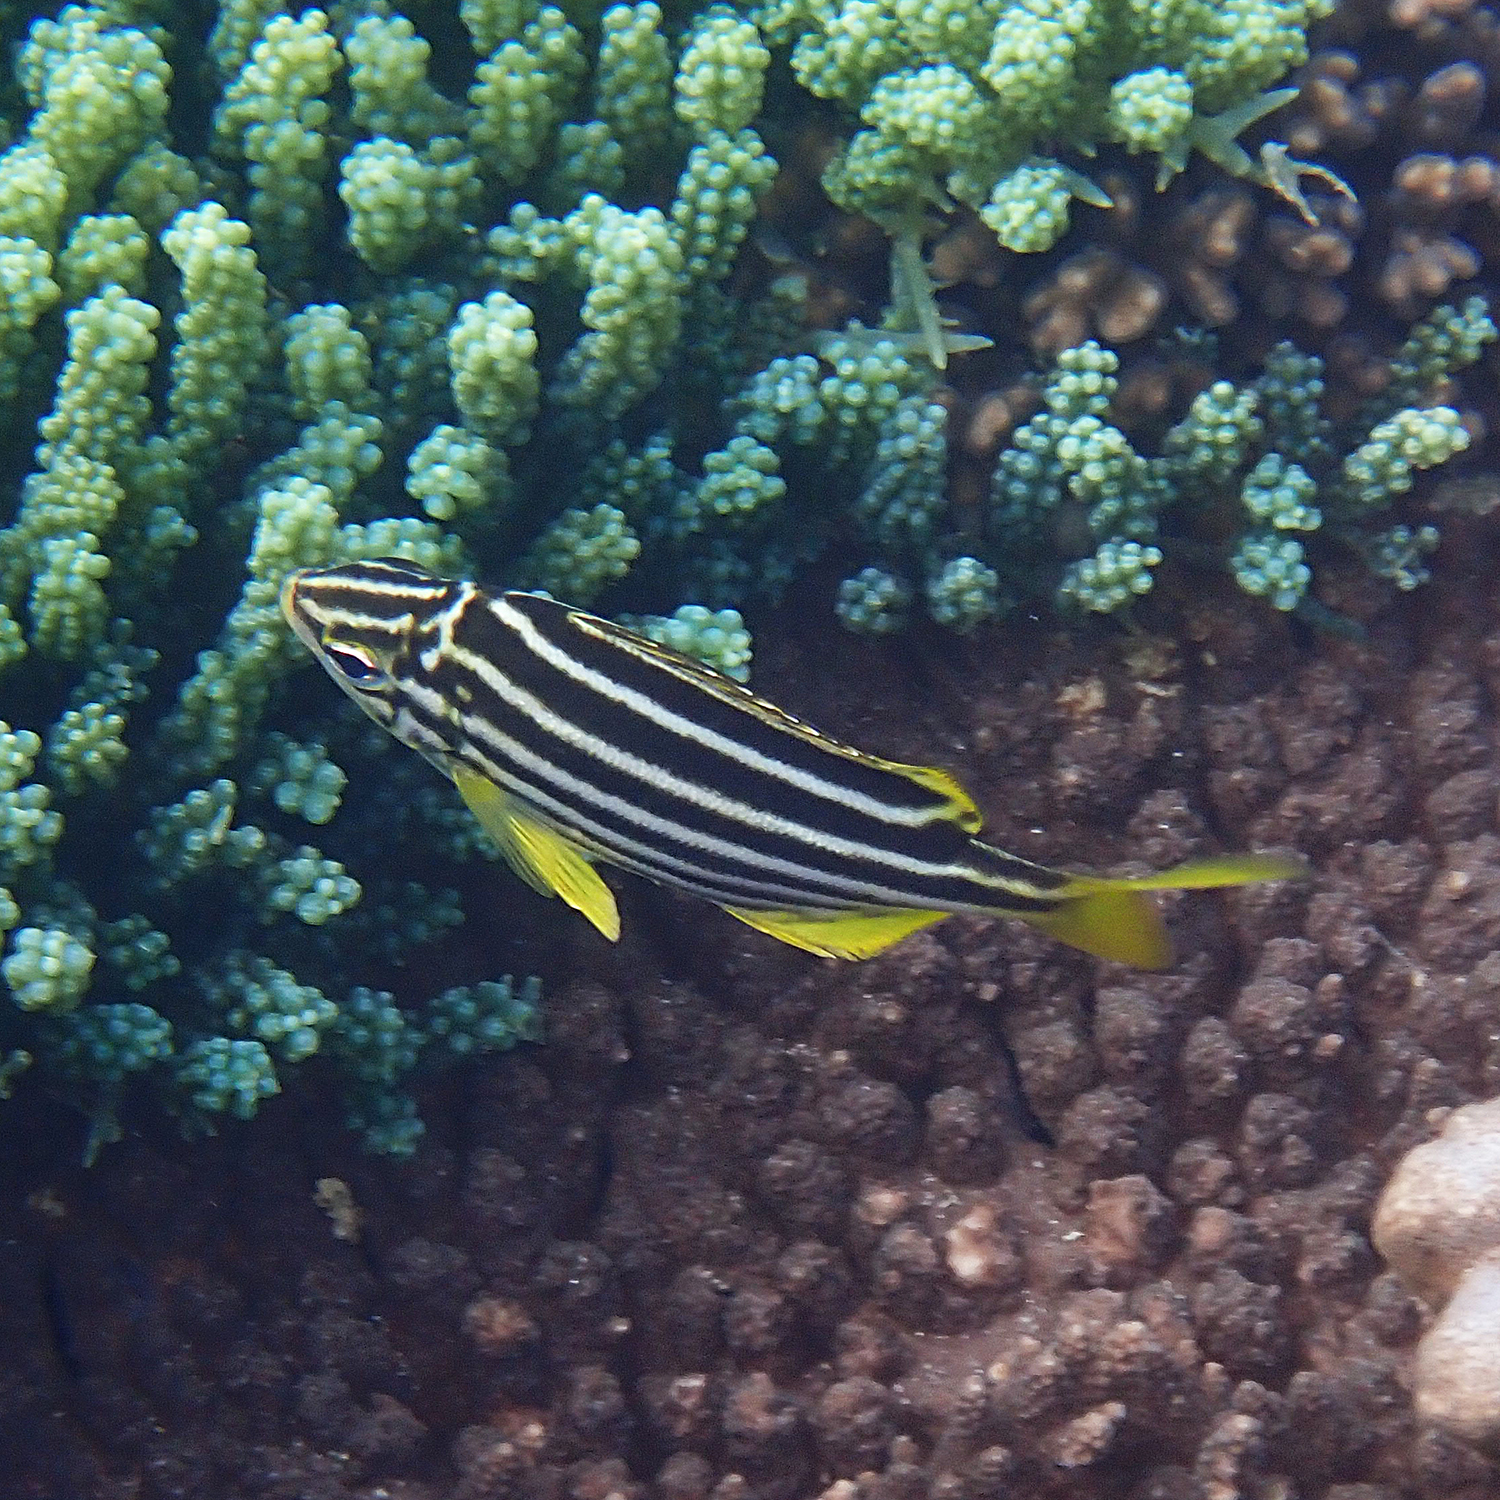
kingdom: Animalia
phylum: Chordata
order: Perciformes
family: Kyphosidae
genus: Atypichthys
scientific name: Atypichthys latus
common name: Mado
